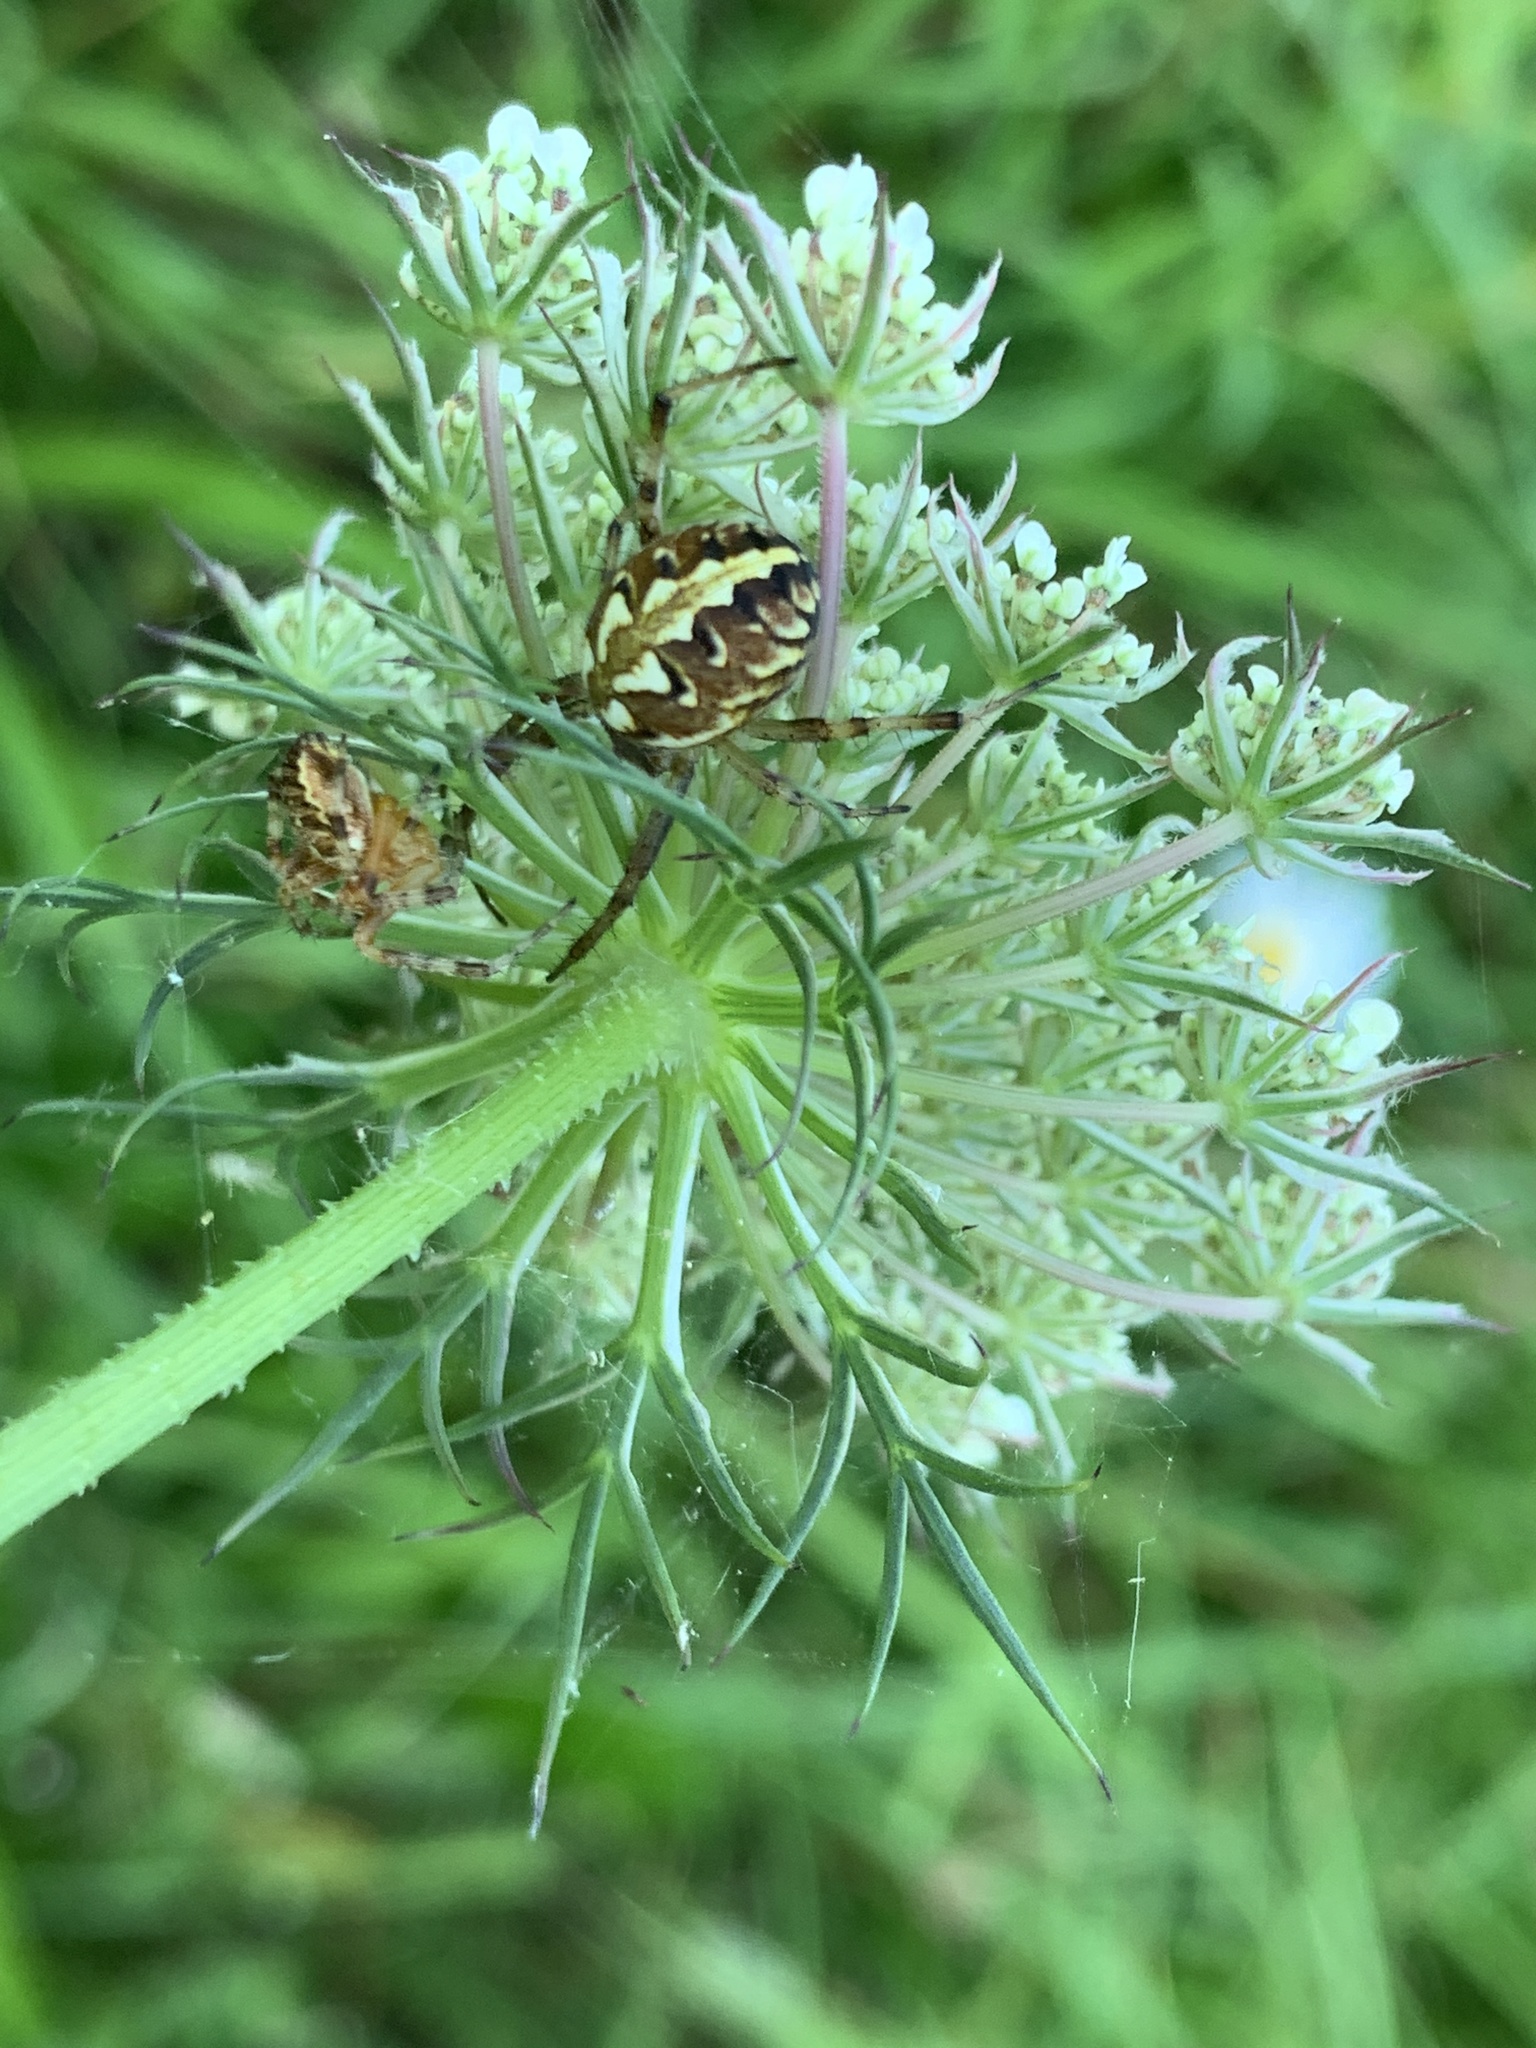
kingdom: Animalia
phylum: Arthropoda
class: Arachnida
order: Araneae
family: Araneidae
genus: Neoscona
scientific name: Neoscona adianta
